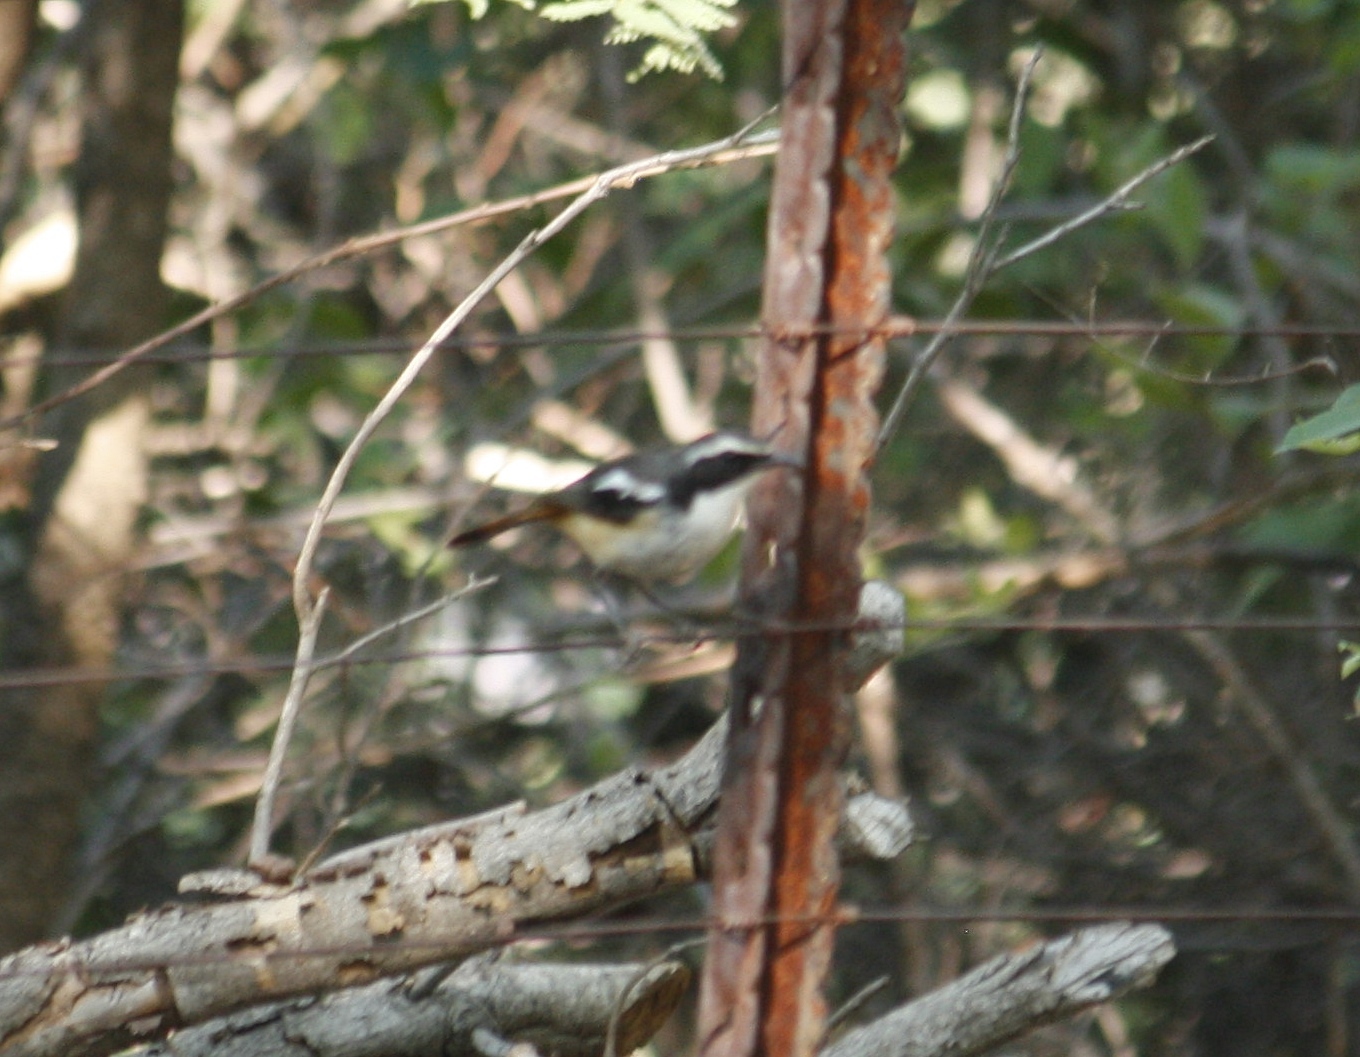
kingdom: Animalia
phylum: Chordata
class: Aves
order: Passeriformes
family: Muscicapidae
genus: Cossypha
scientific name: Cossypha humeralis
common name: White-throated robin-chat
